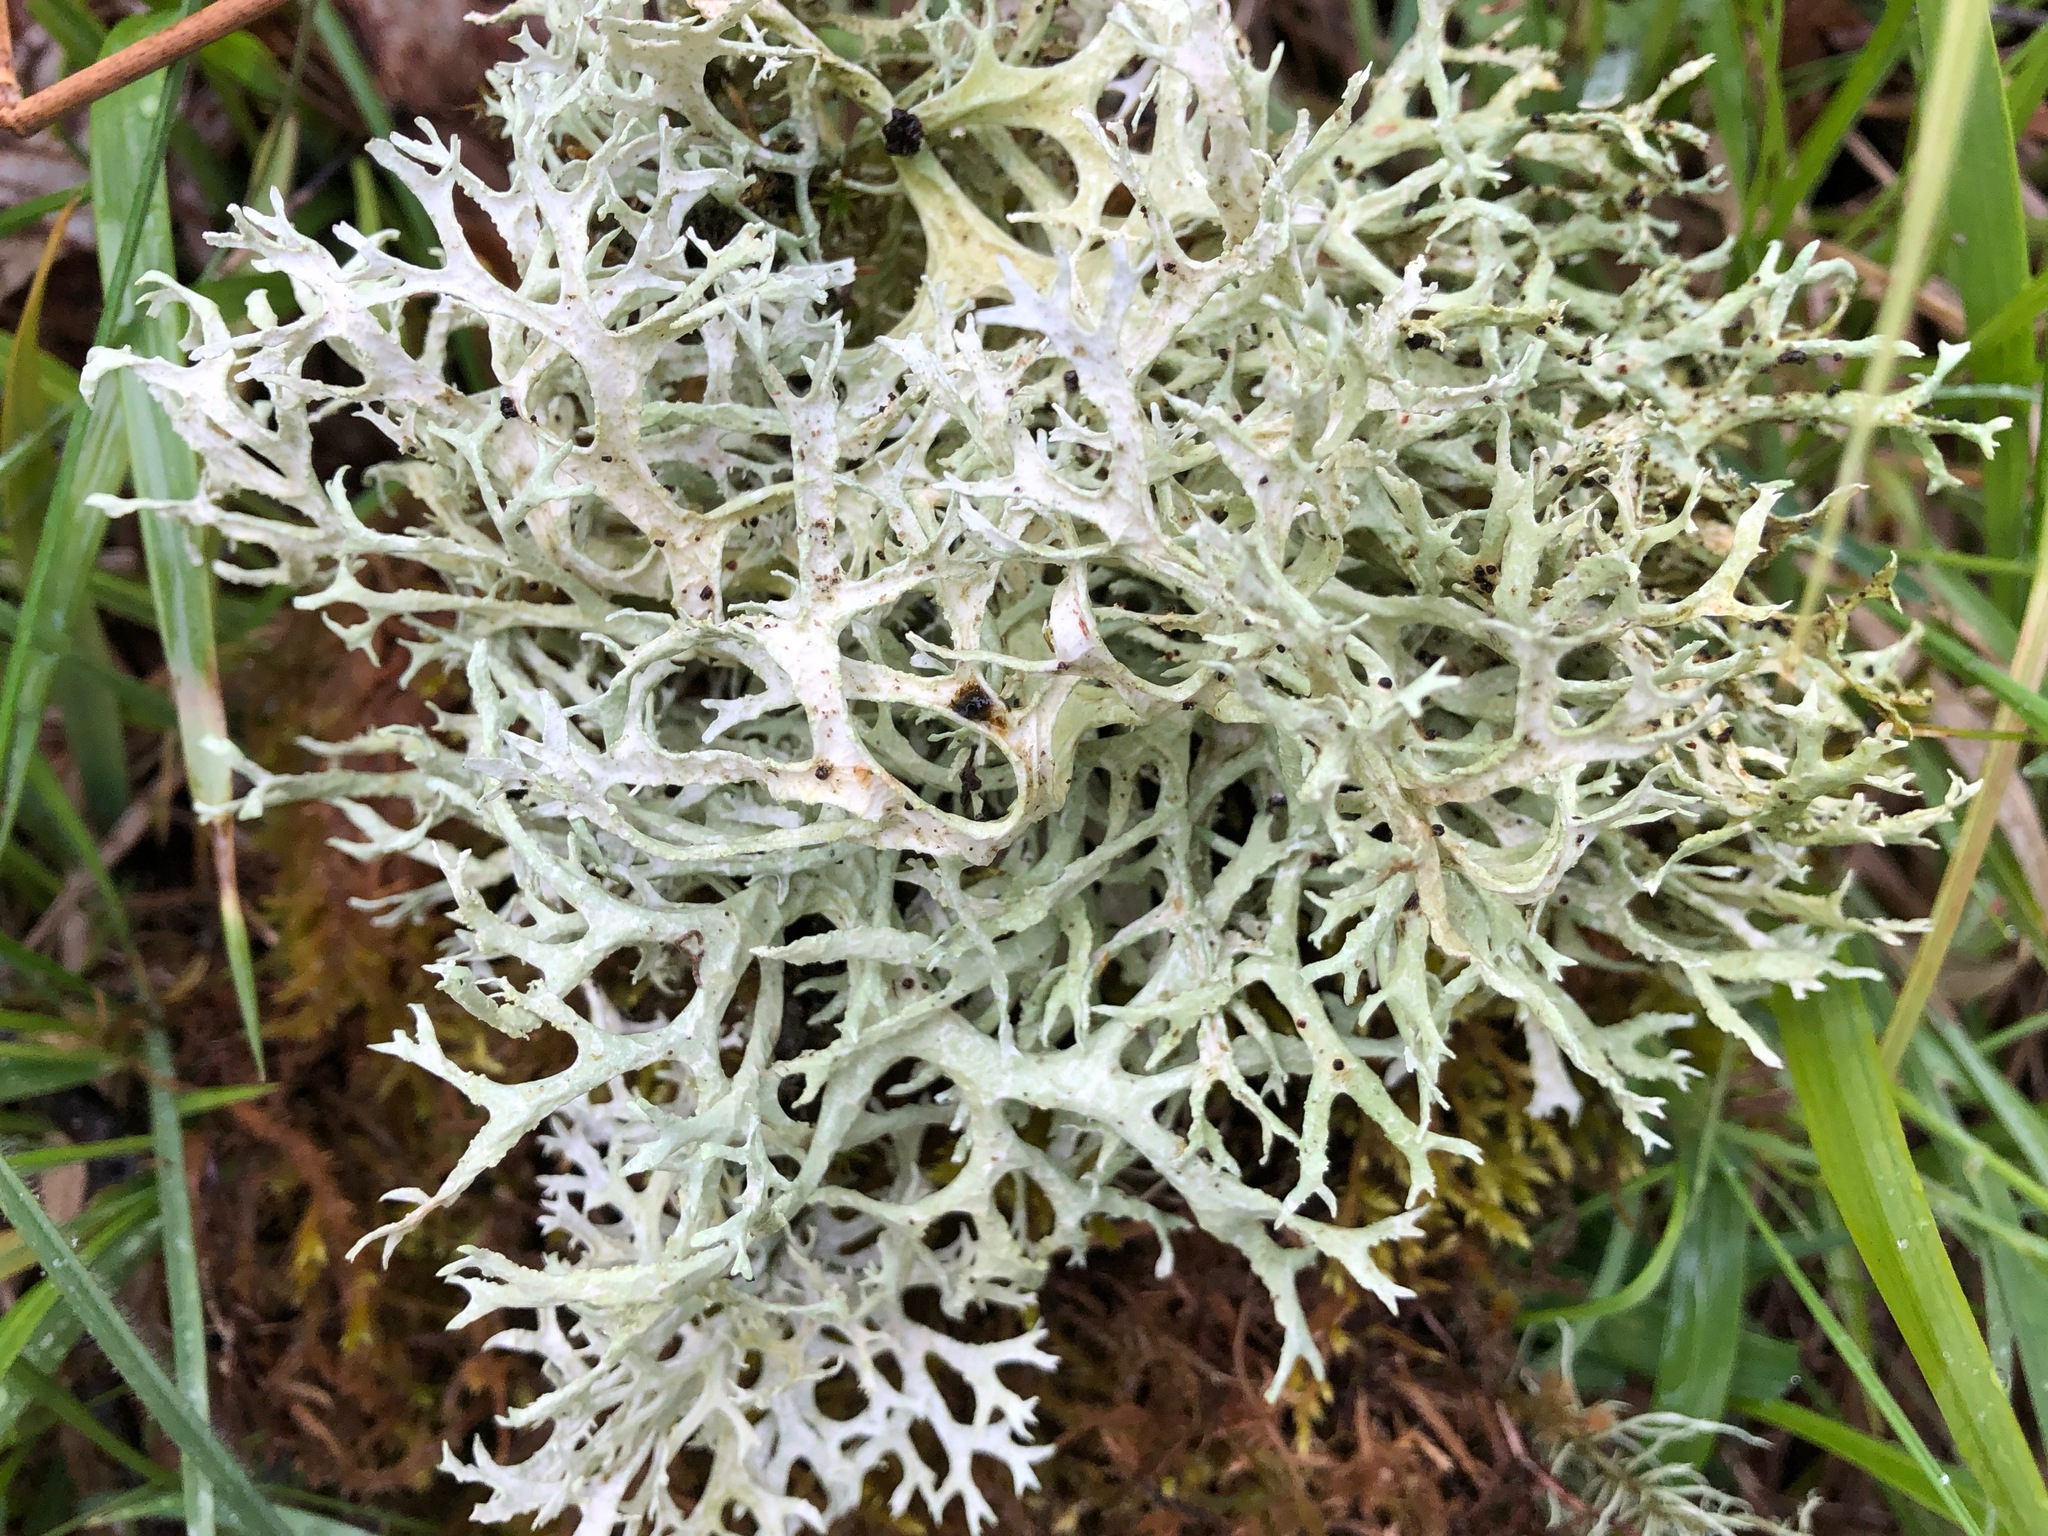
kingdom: Fungi
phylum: Ascomycota
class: Lecanoromycetes
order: Lecanorales
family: Parmeliaceae
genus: Evernia
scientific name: Evernia prunastri
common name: Oak moss
